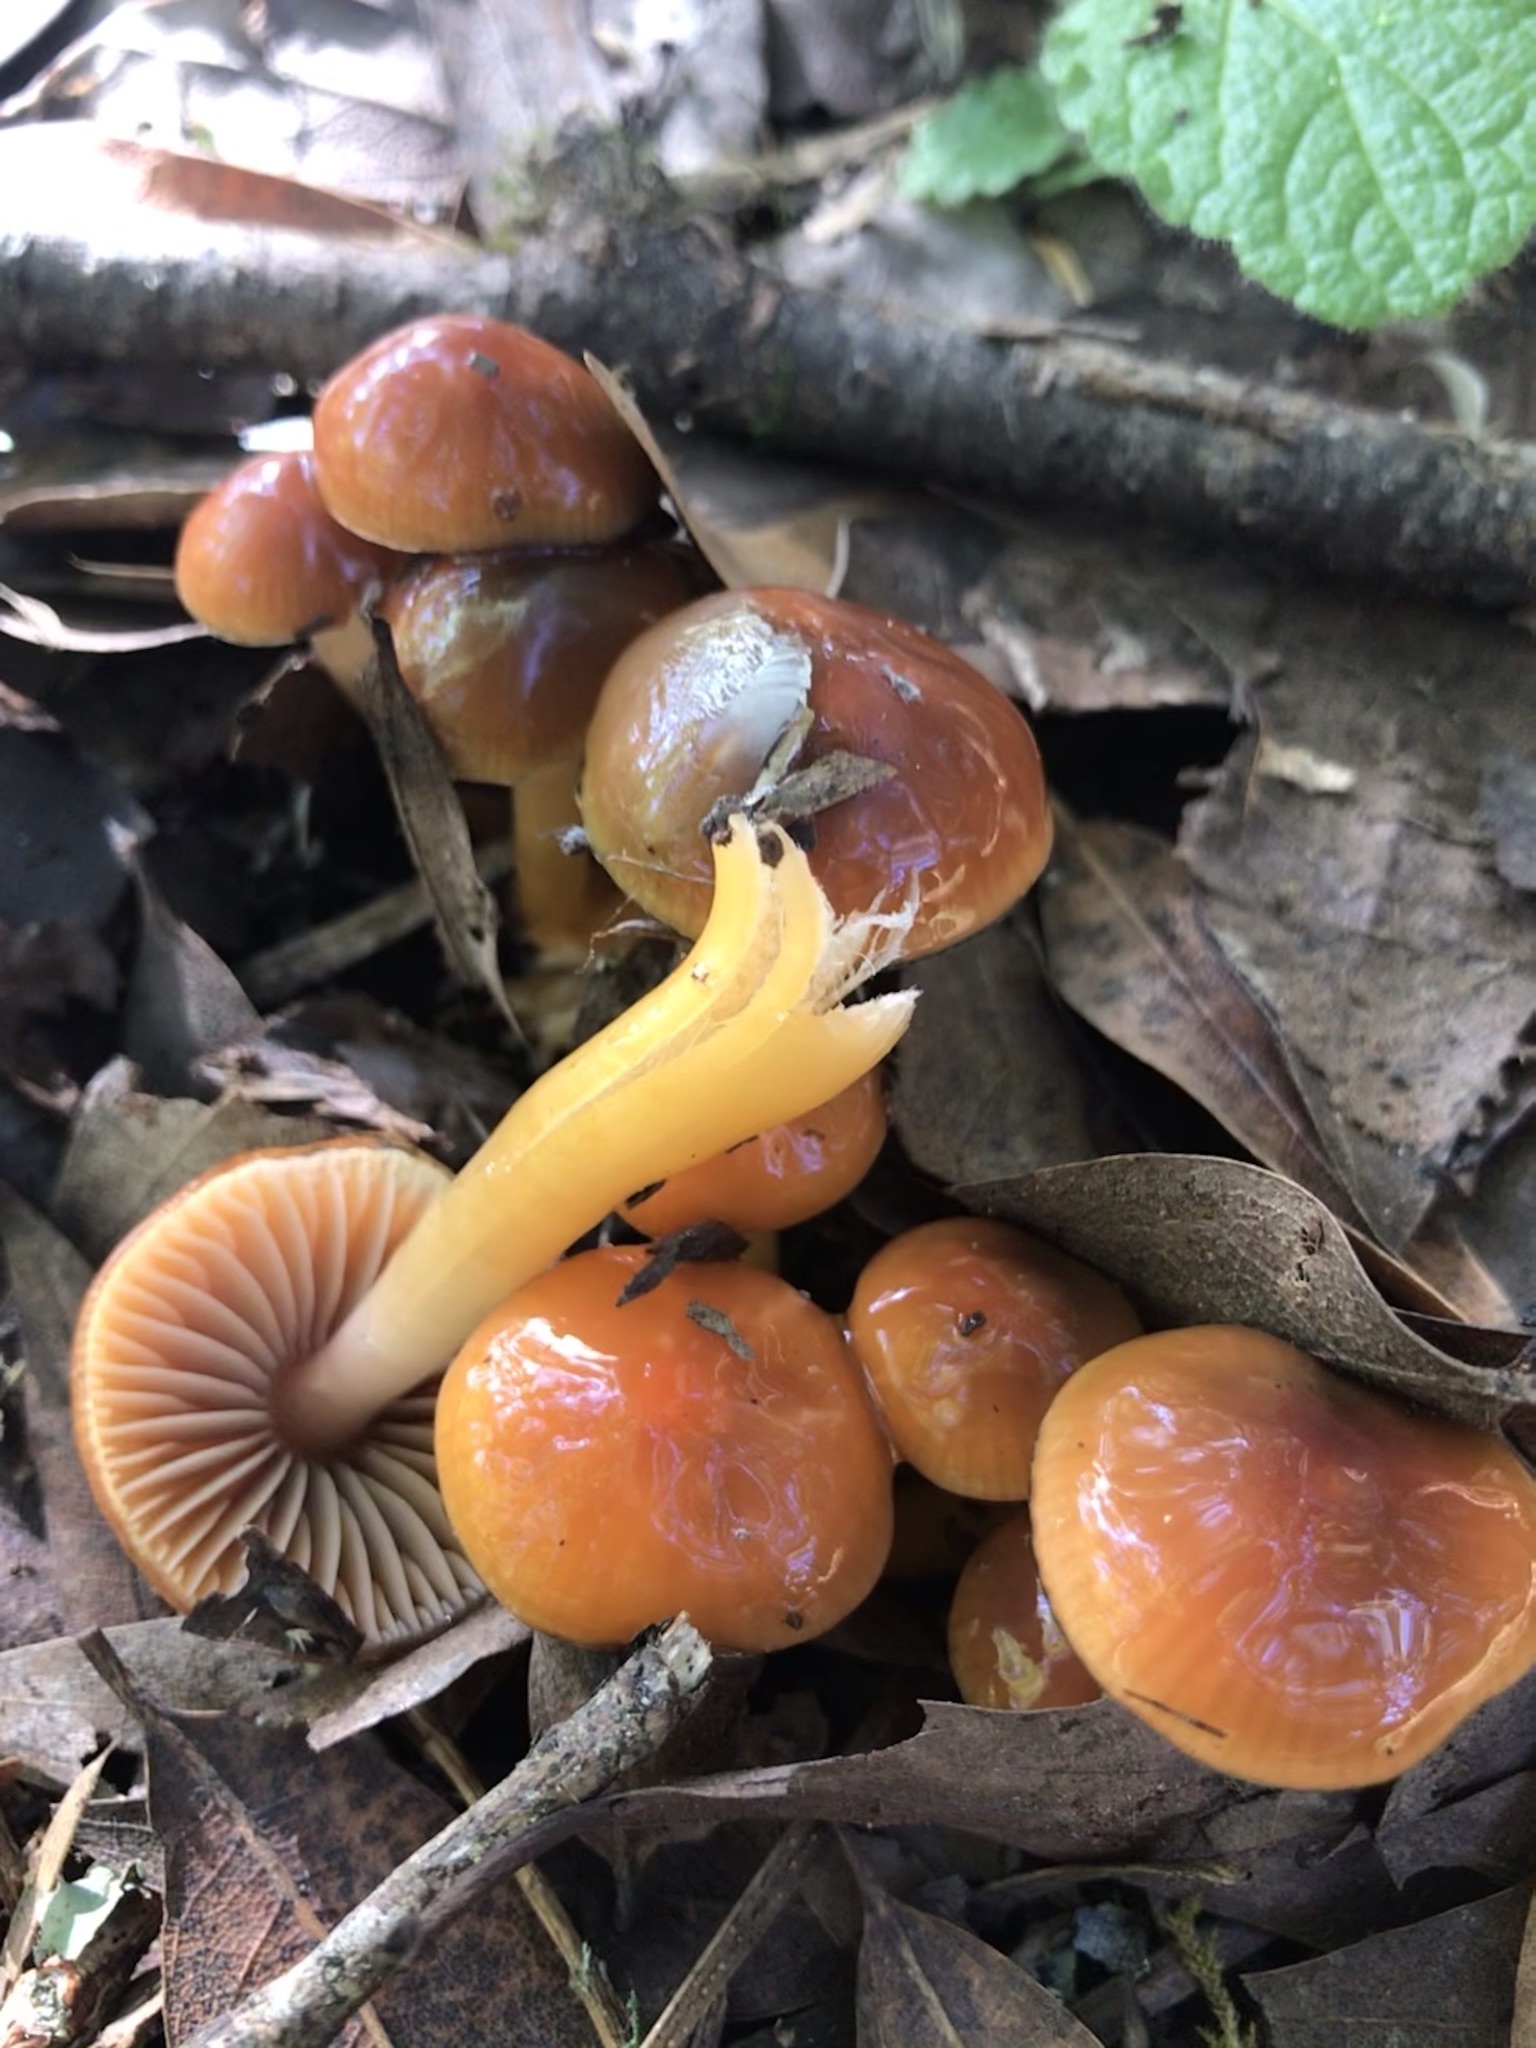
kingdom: Fungi
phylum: Basidiomycota
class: Agaricomycetes
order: Agaricales
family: Hygrophoraceae
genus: Gliophorus
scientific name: Gliophorus psittacinus
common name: Parrot wax-cap
